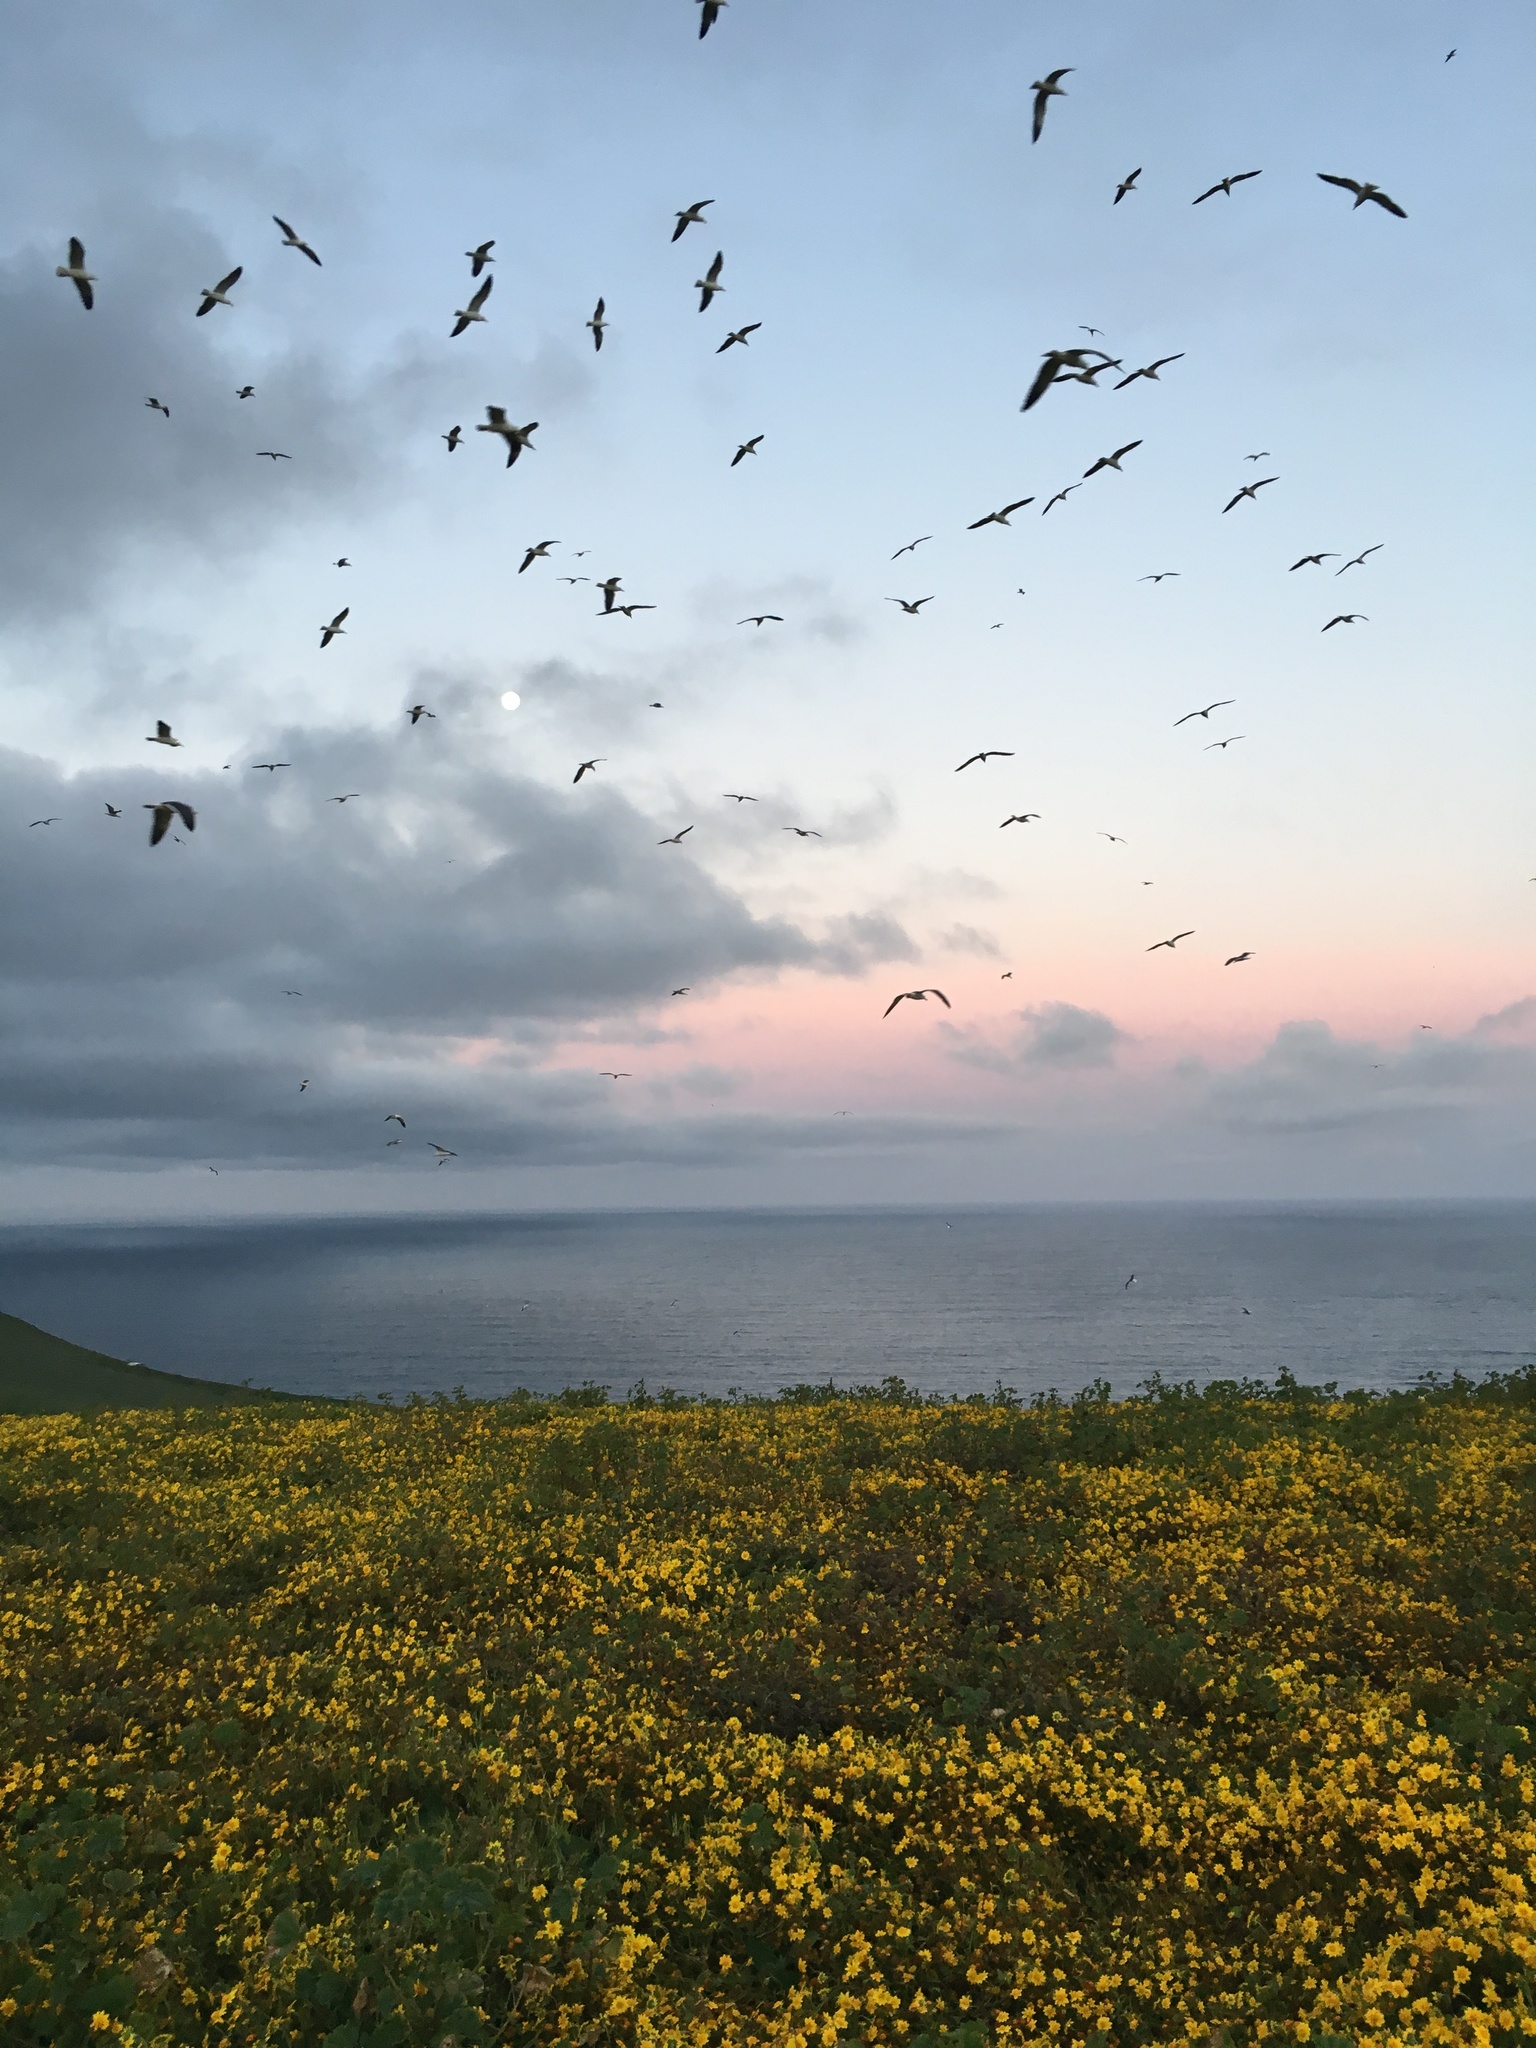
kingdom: Animalia
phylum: Chordata
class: Aves
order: Charadriiformes
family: Laridae
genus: Larus
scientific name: Larus occidentalis
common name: Western gull
